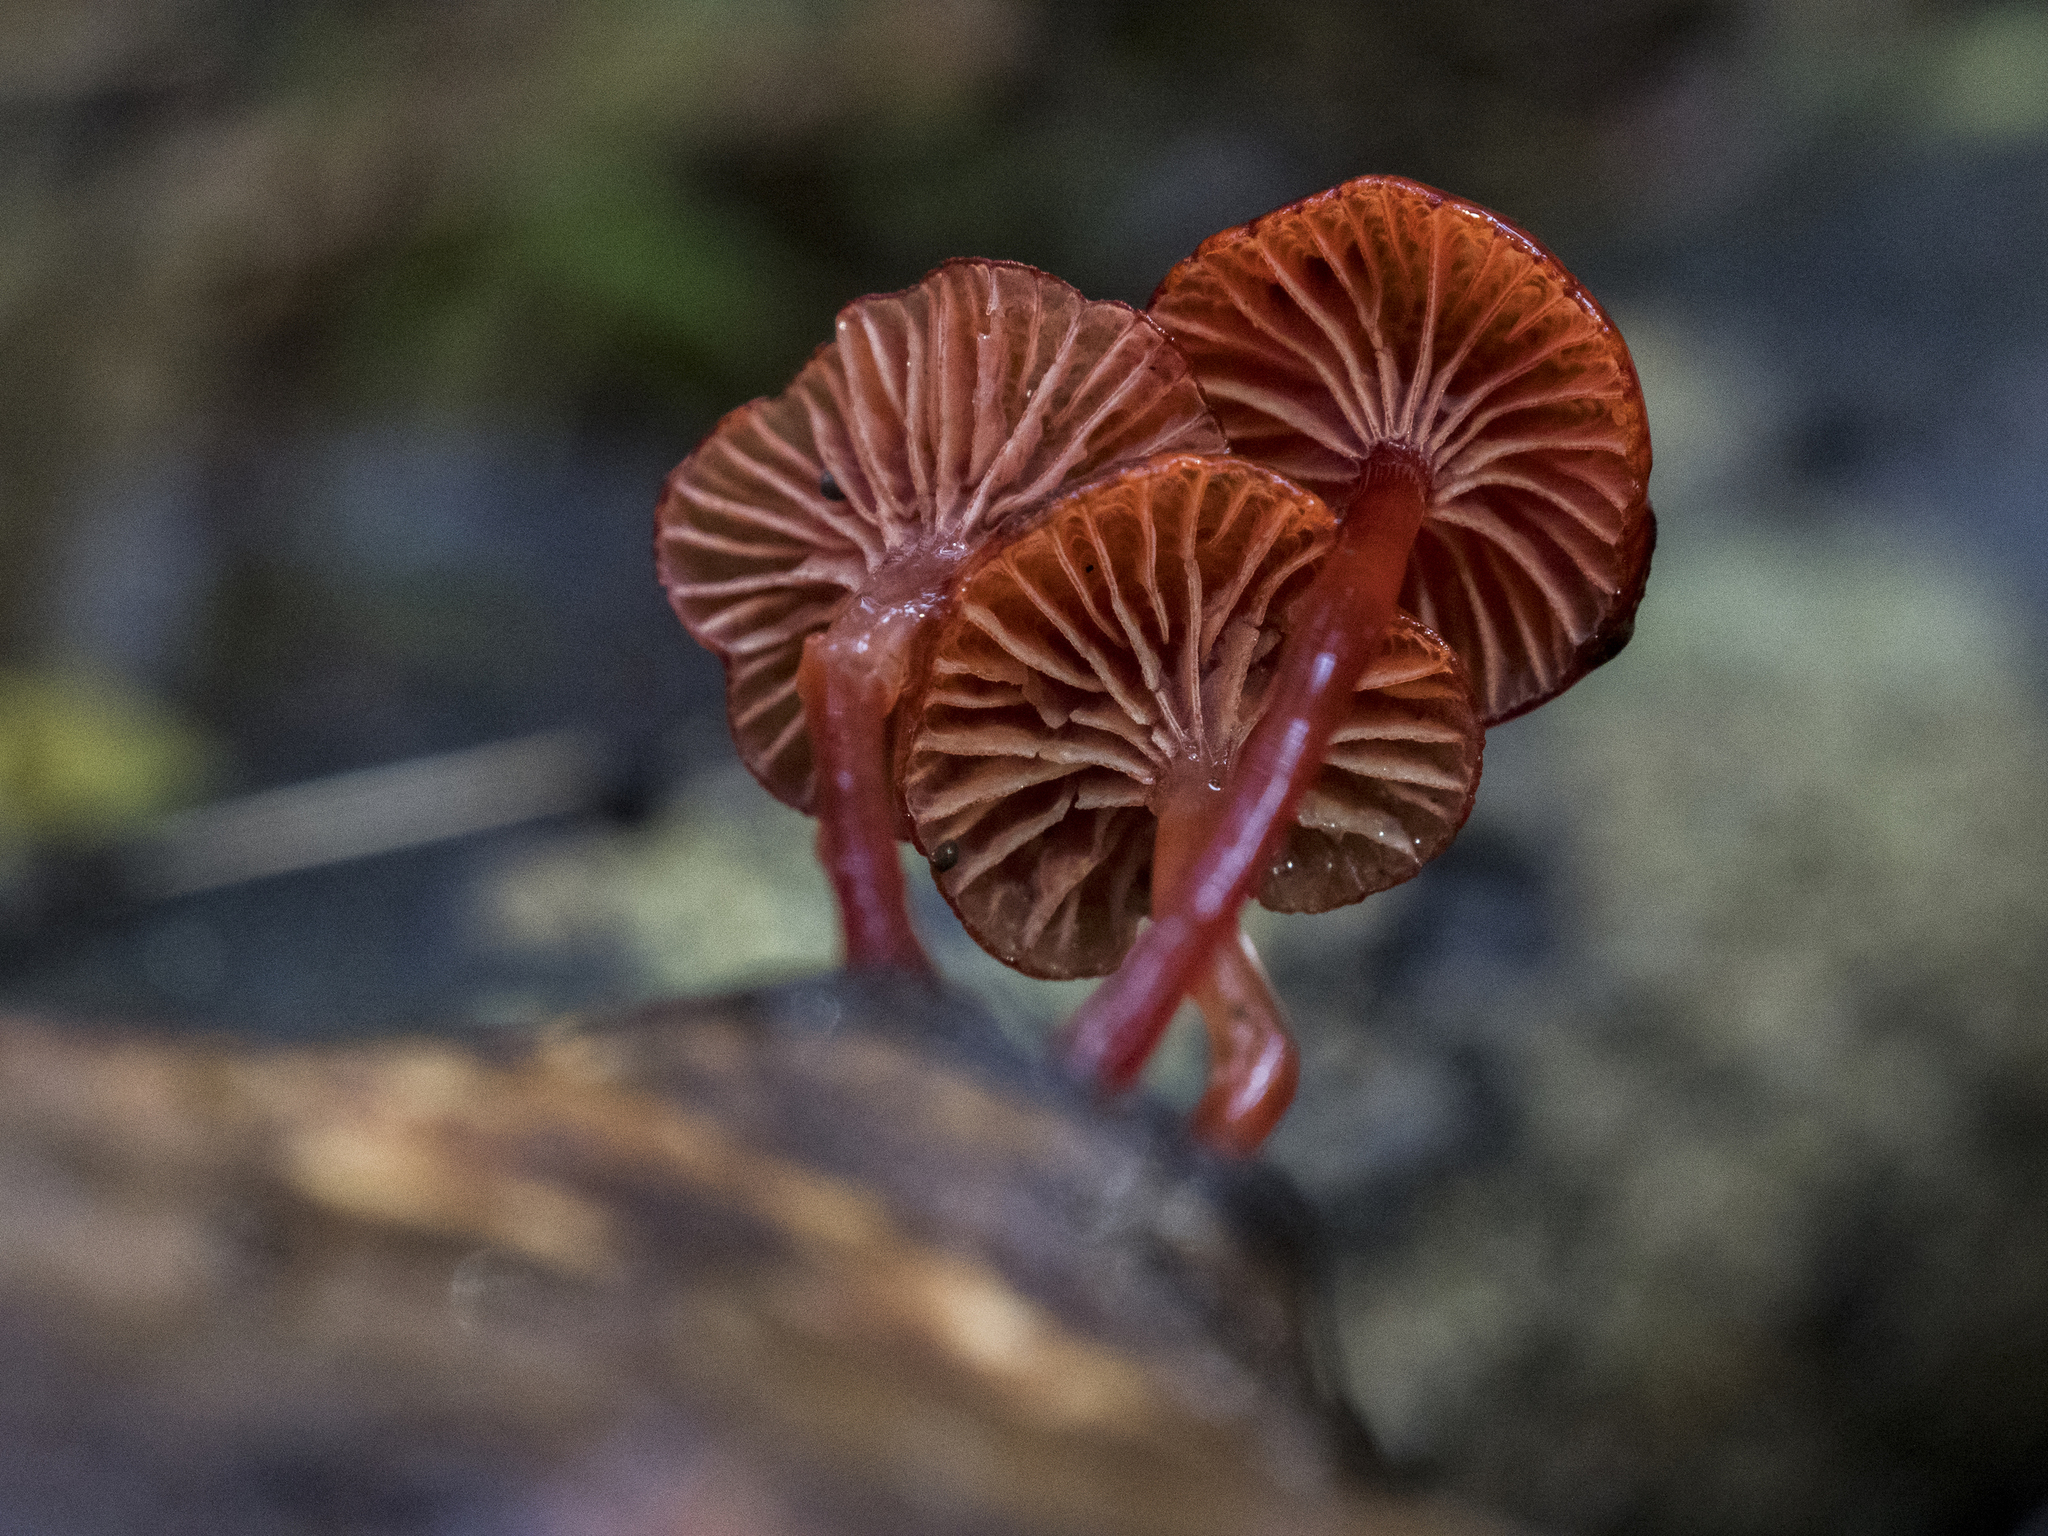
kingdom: Fungi
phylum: Basidiomycota
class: Agaricomycetes
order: Agaricales
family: Mycenaceae
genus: Cruentomycena
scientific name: Cruentomycena viscidocruenta
